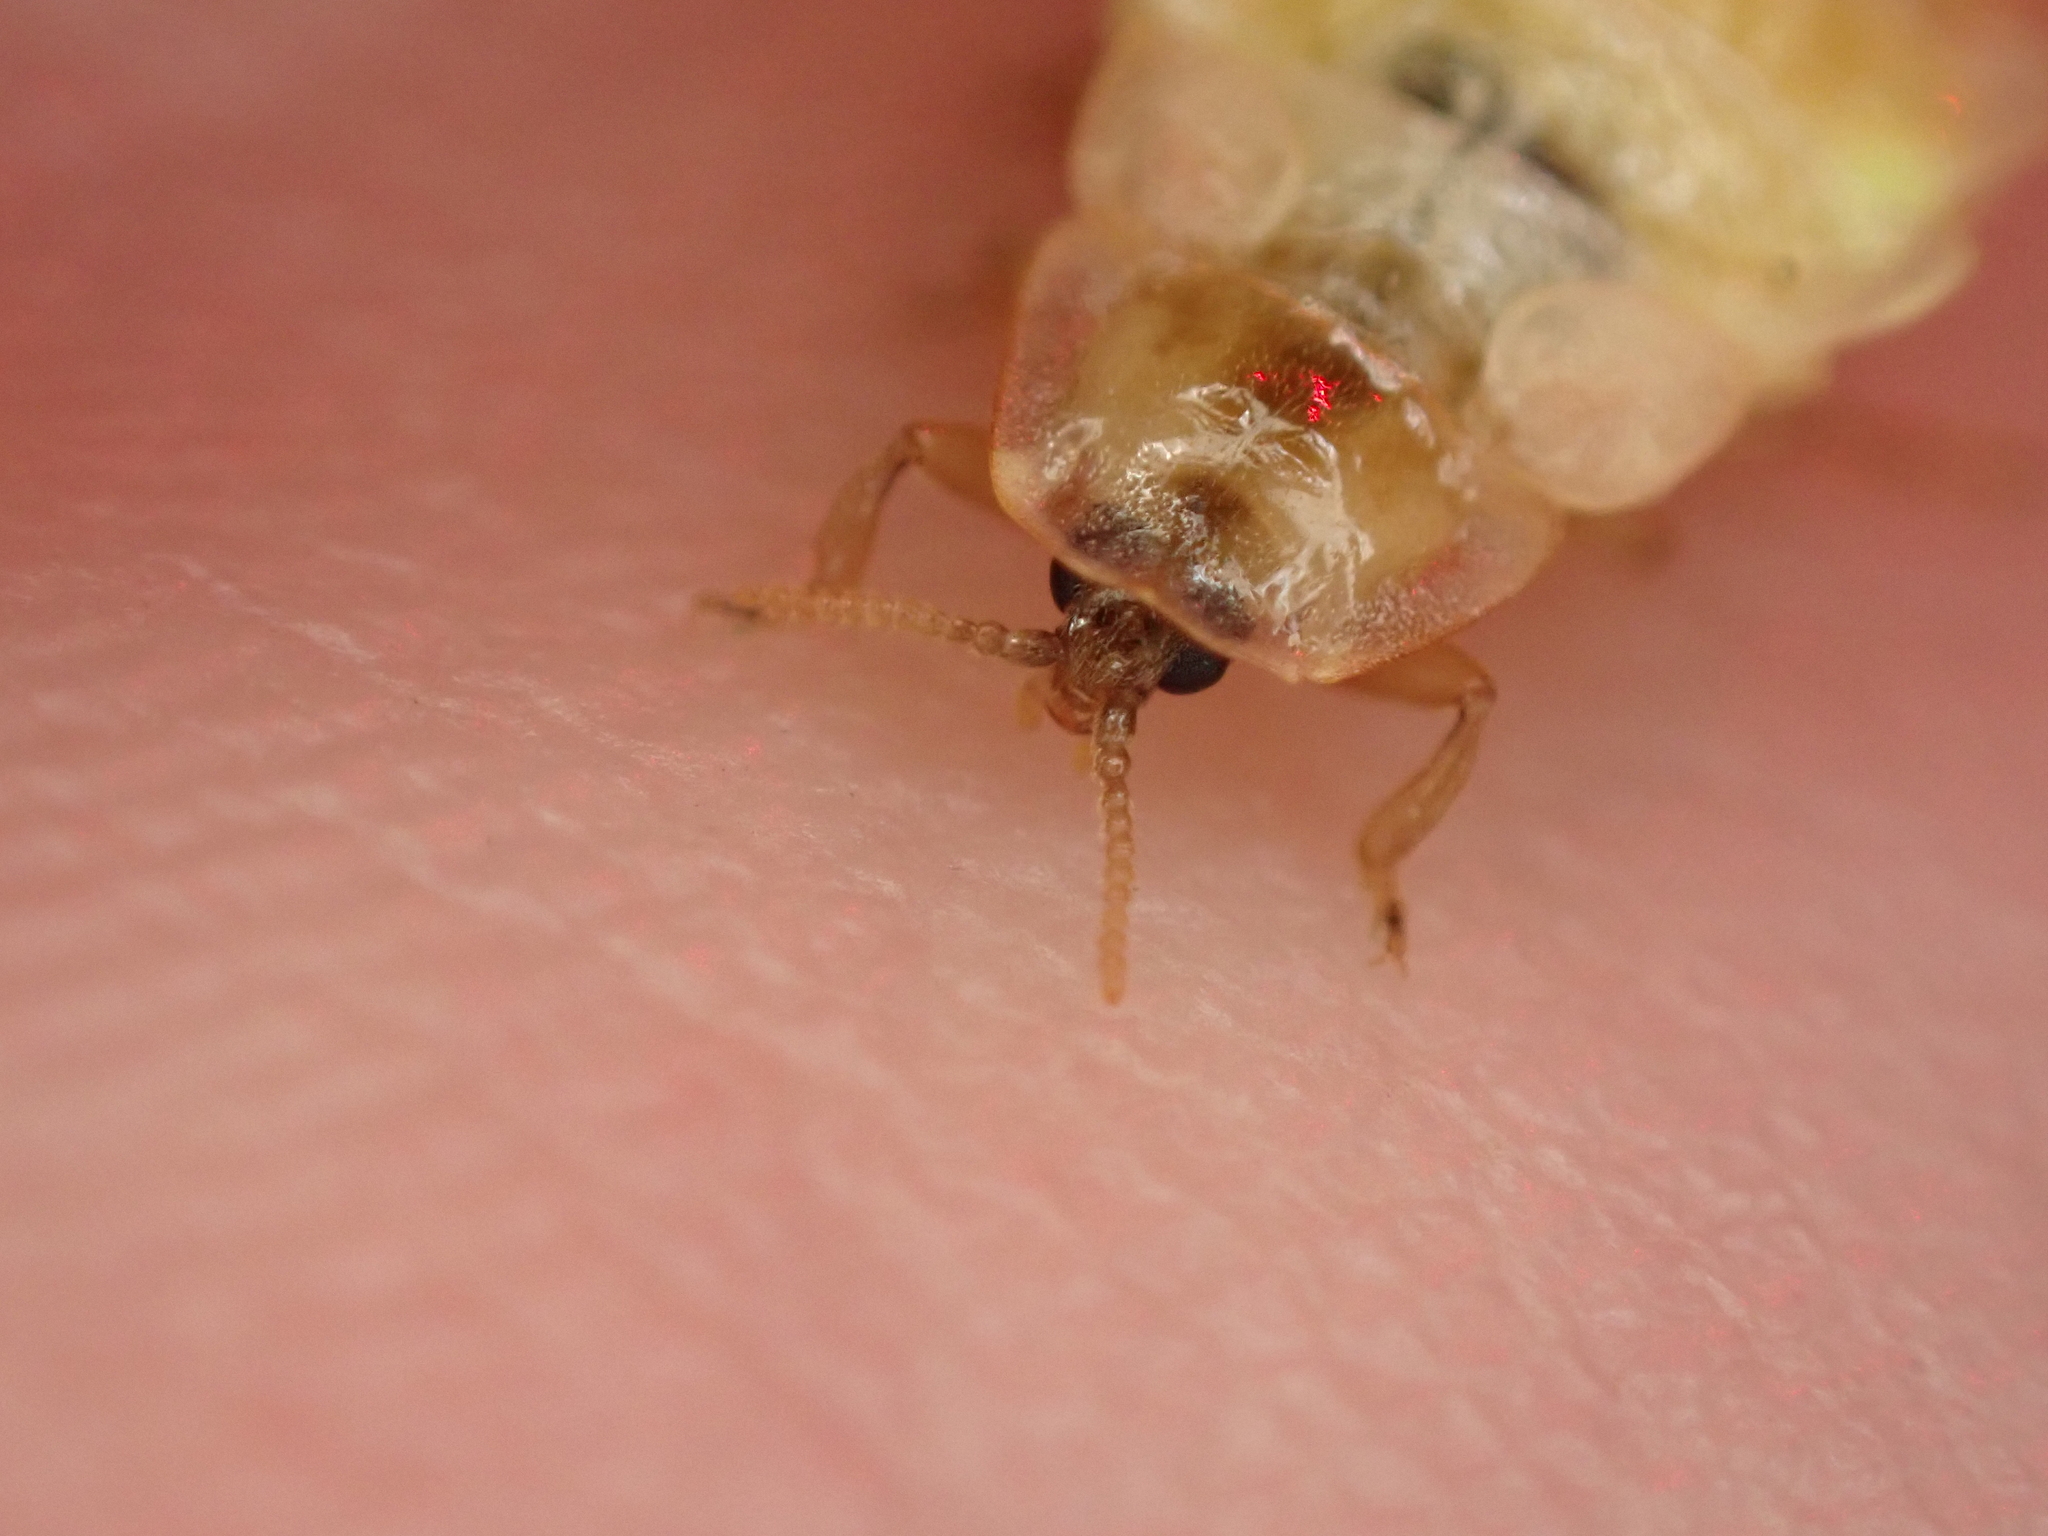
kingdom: Animalia
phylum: Arthropoda
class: Insecta
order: Coleoptera
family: Lampyridae
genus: Lamprohiza
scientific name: Lamprohiza splendidula
